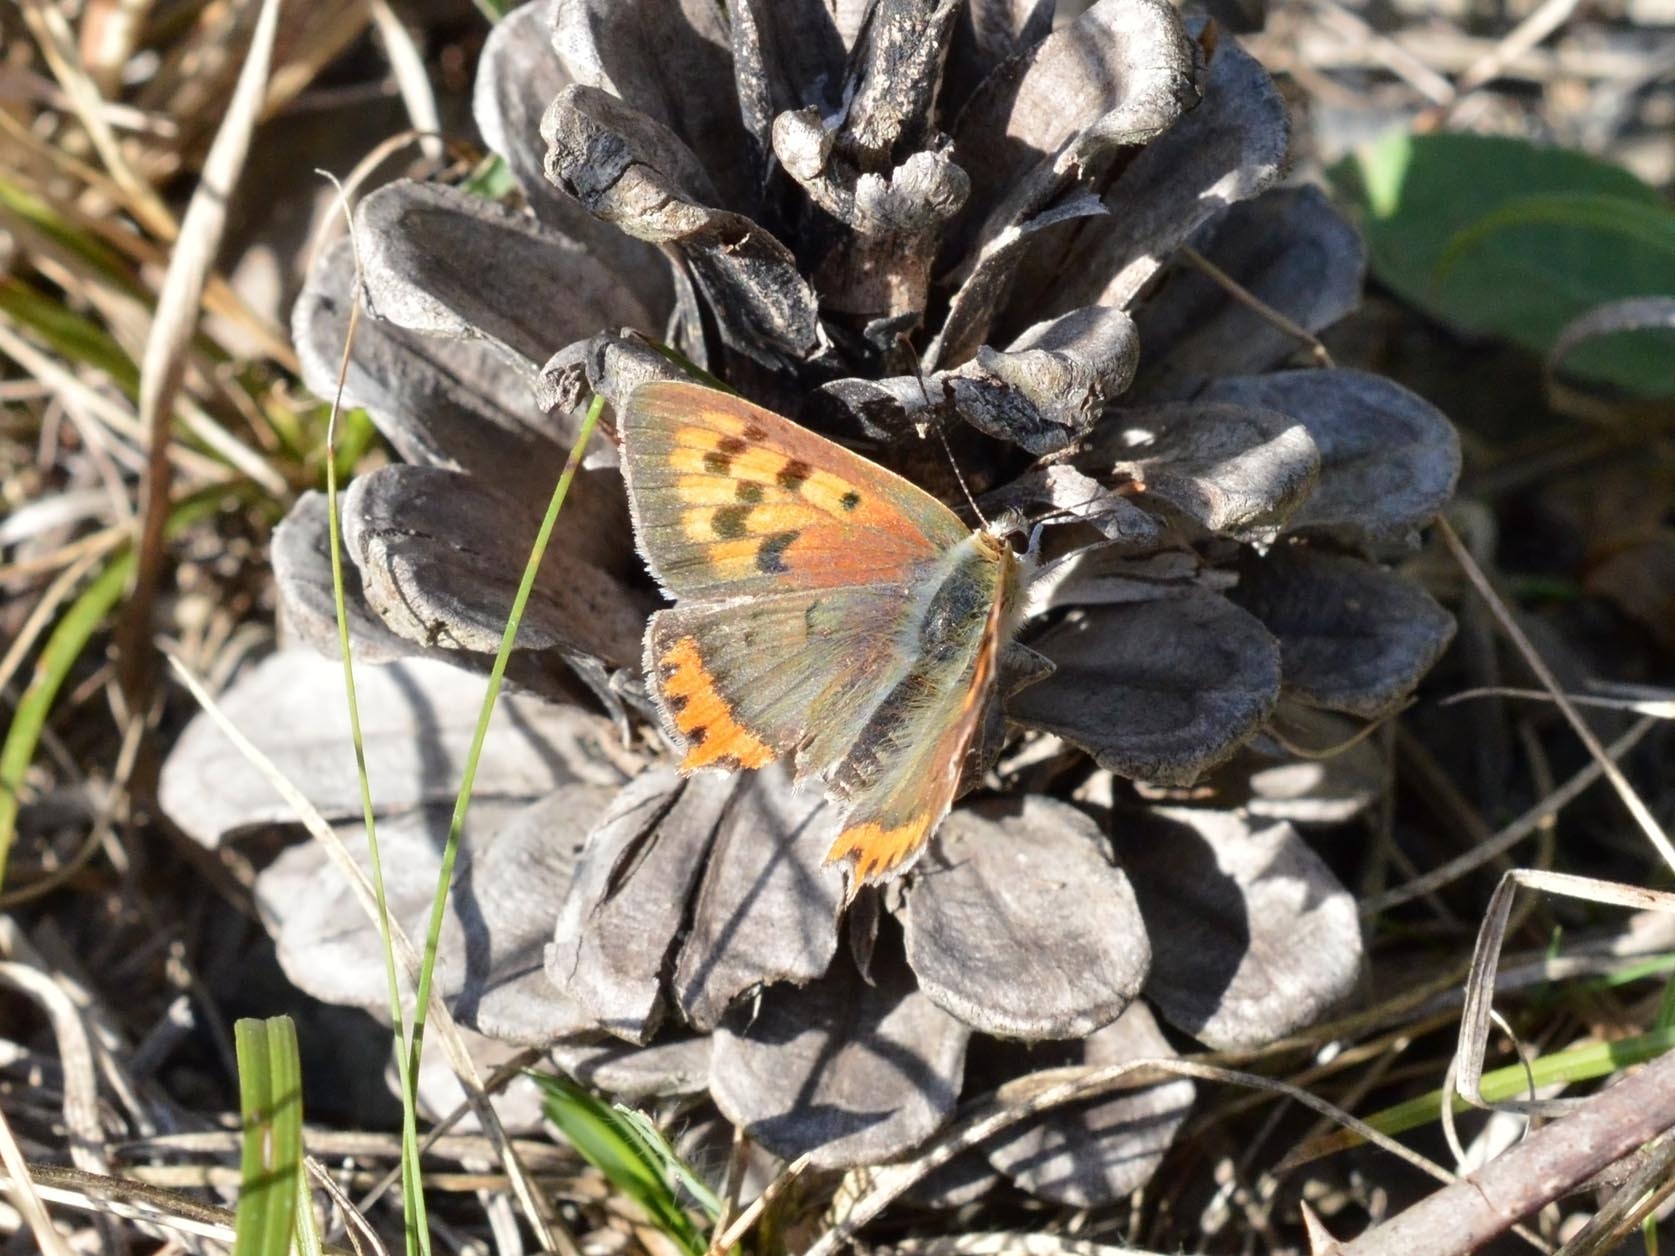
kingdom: Animalia
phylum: Arthropoda
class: Insecta
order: Lepidoptera
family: Lycaenidae
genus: Lycaena
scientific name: Lycaena phlaeas
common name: Small copper
